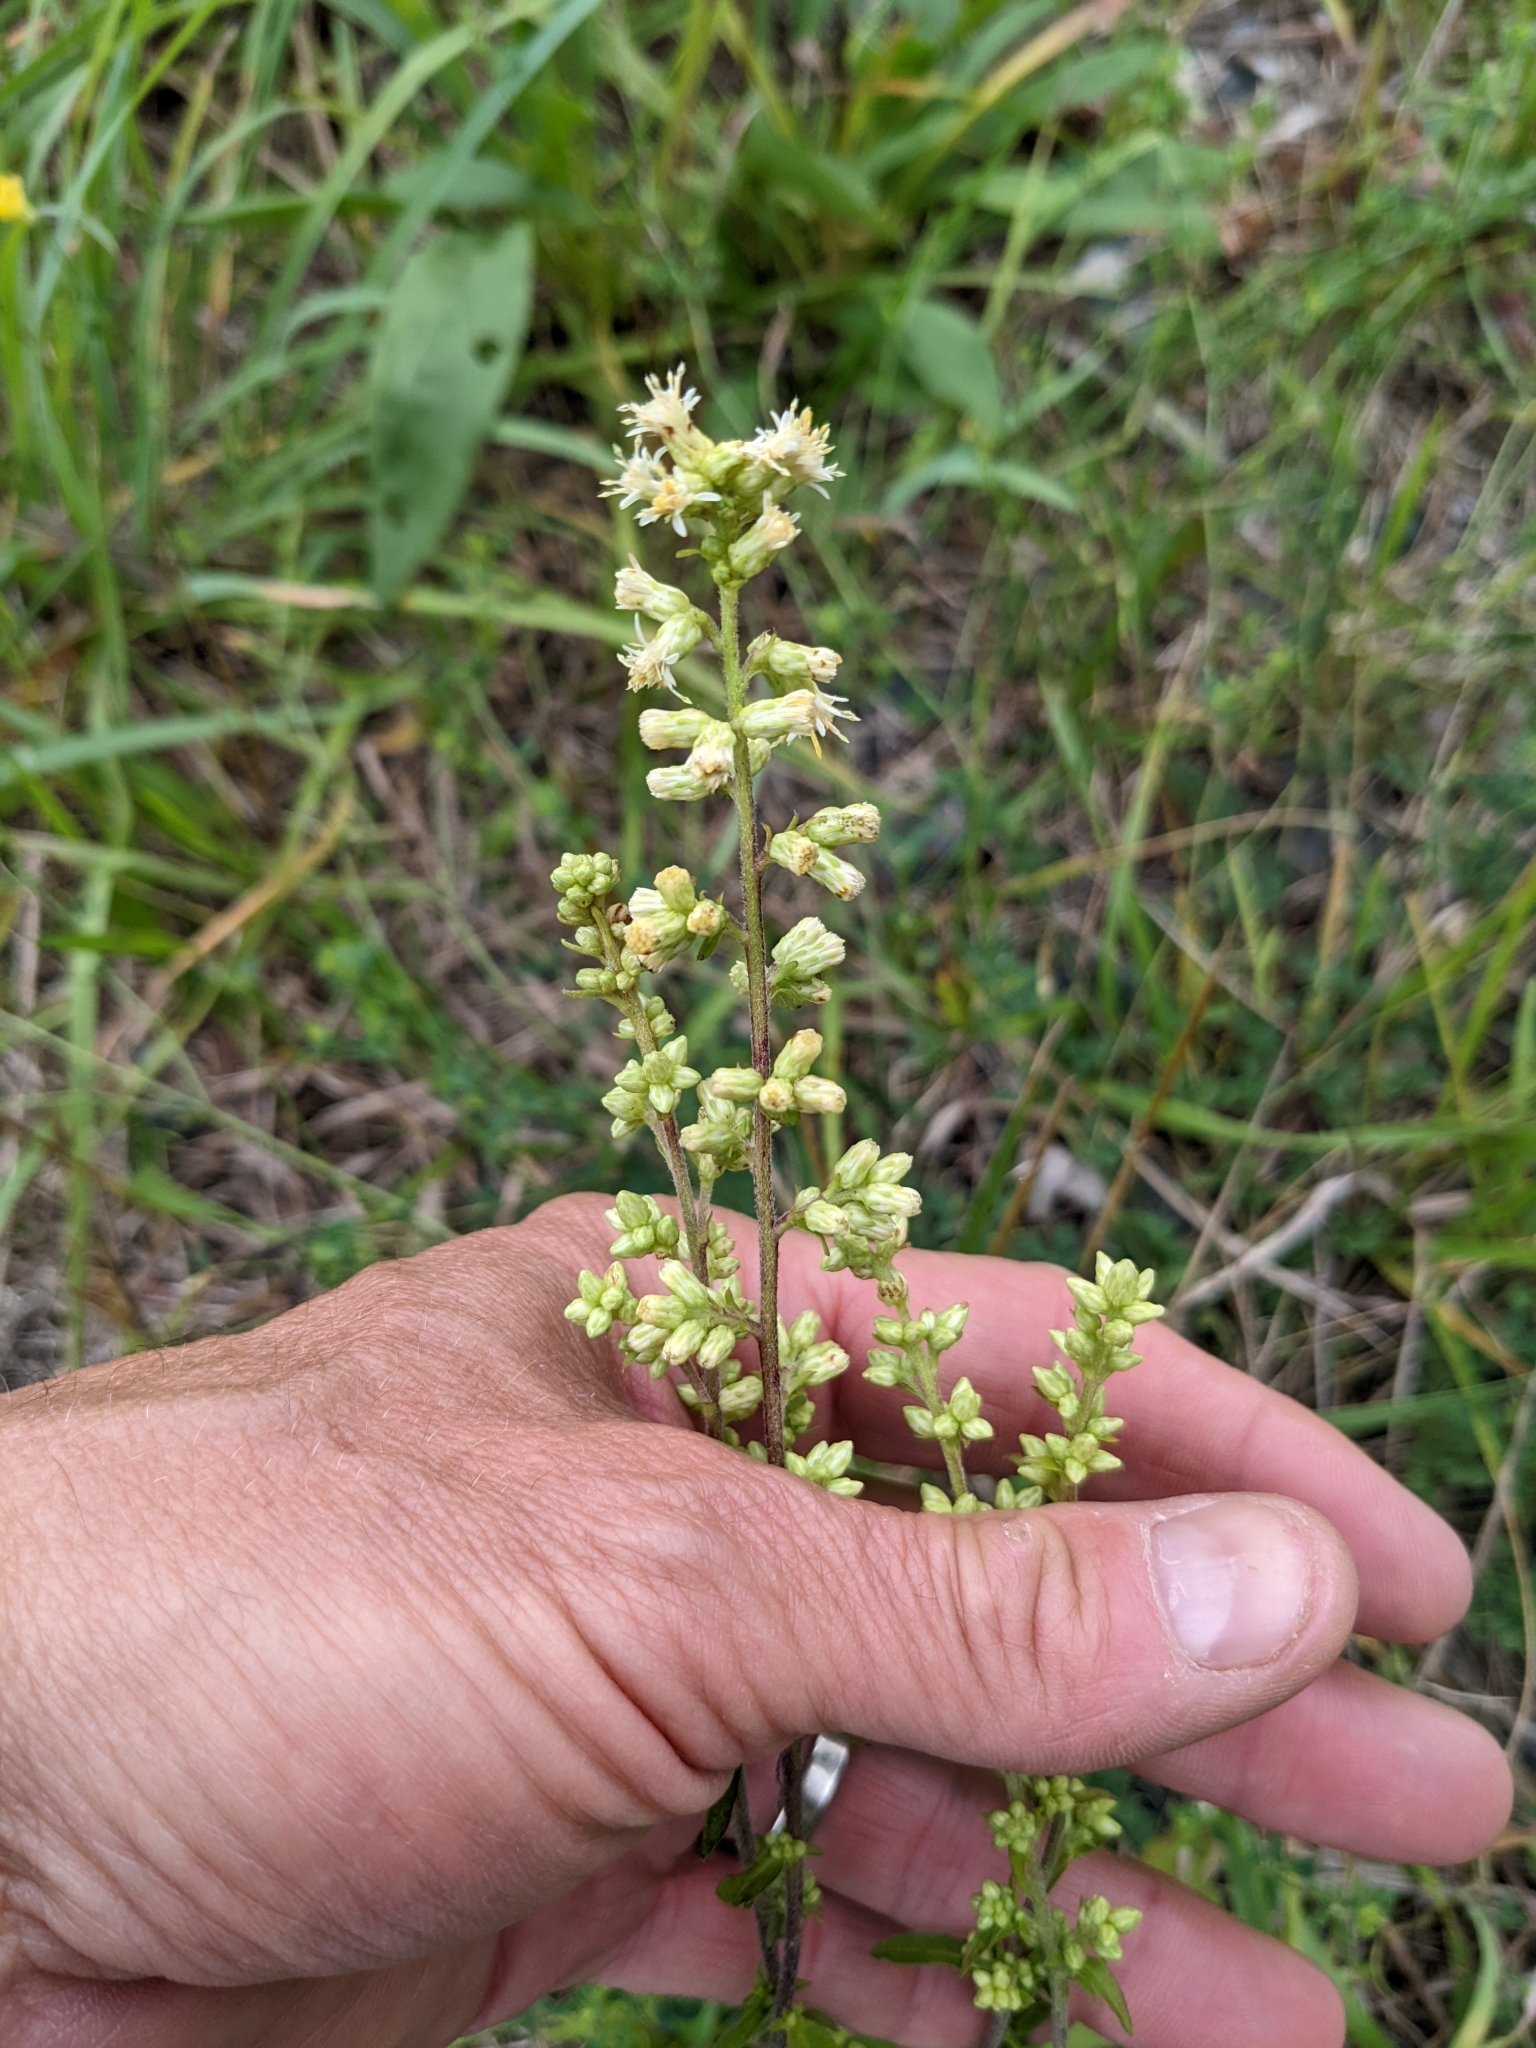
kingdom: Plantae
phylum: Tracheophyta
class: Magnoliopsida
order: Asterales
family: Asteraceae
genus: Solidago
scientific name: Solidago bicolor
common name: Silverrod
